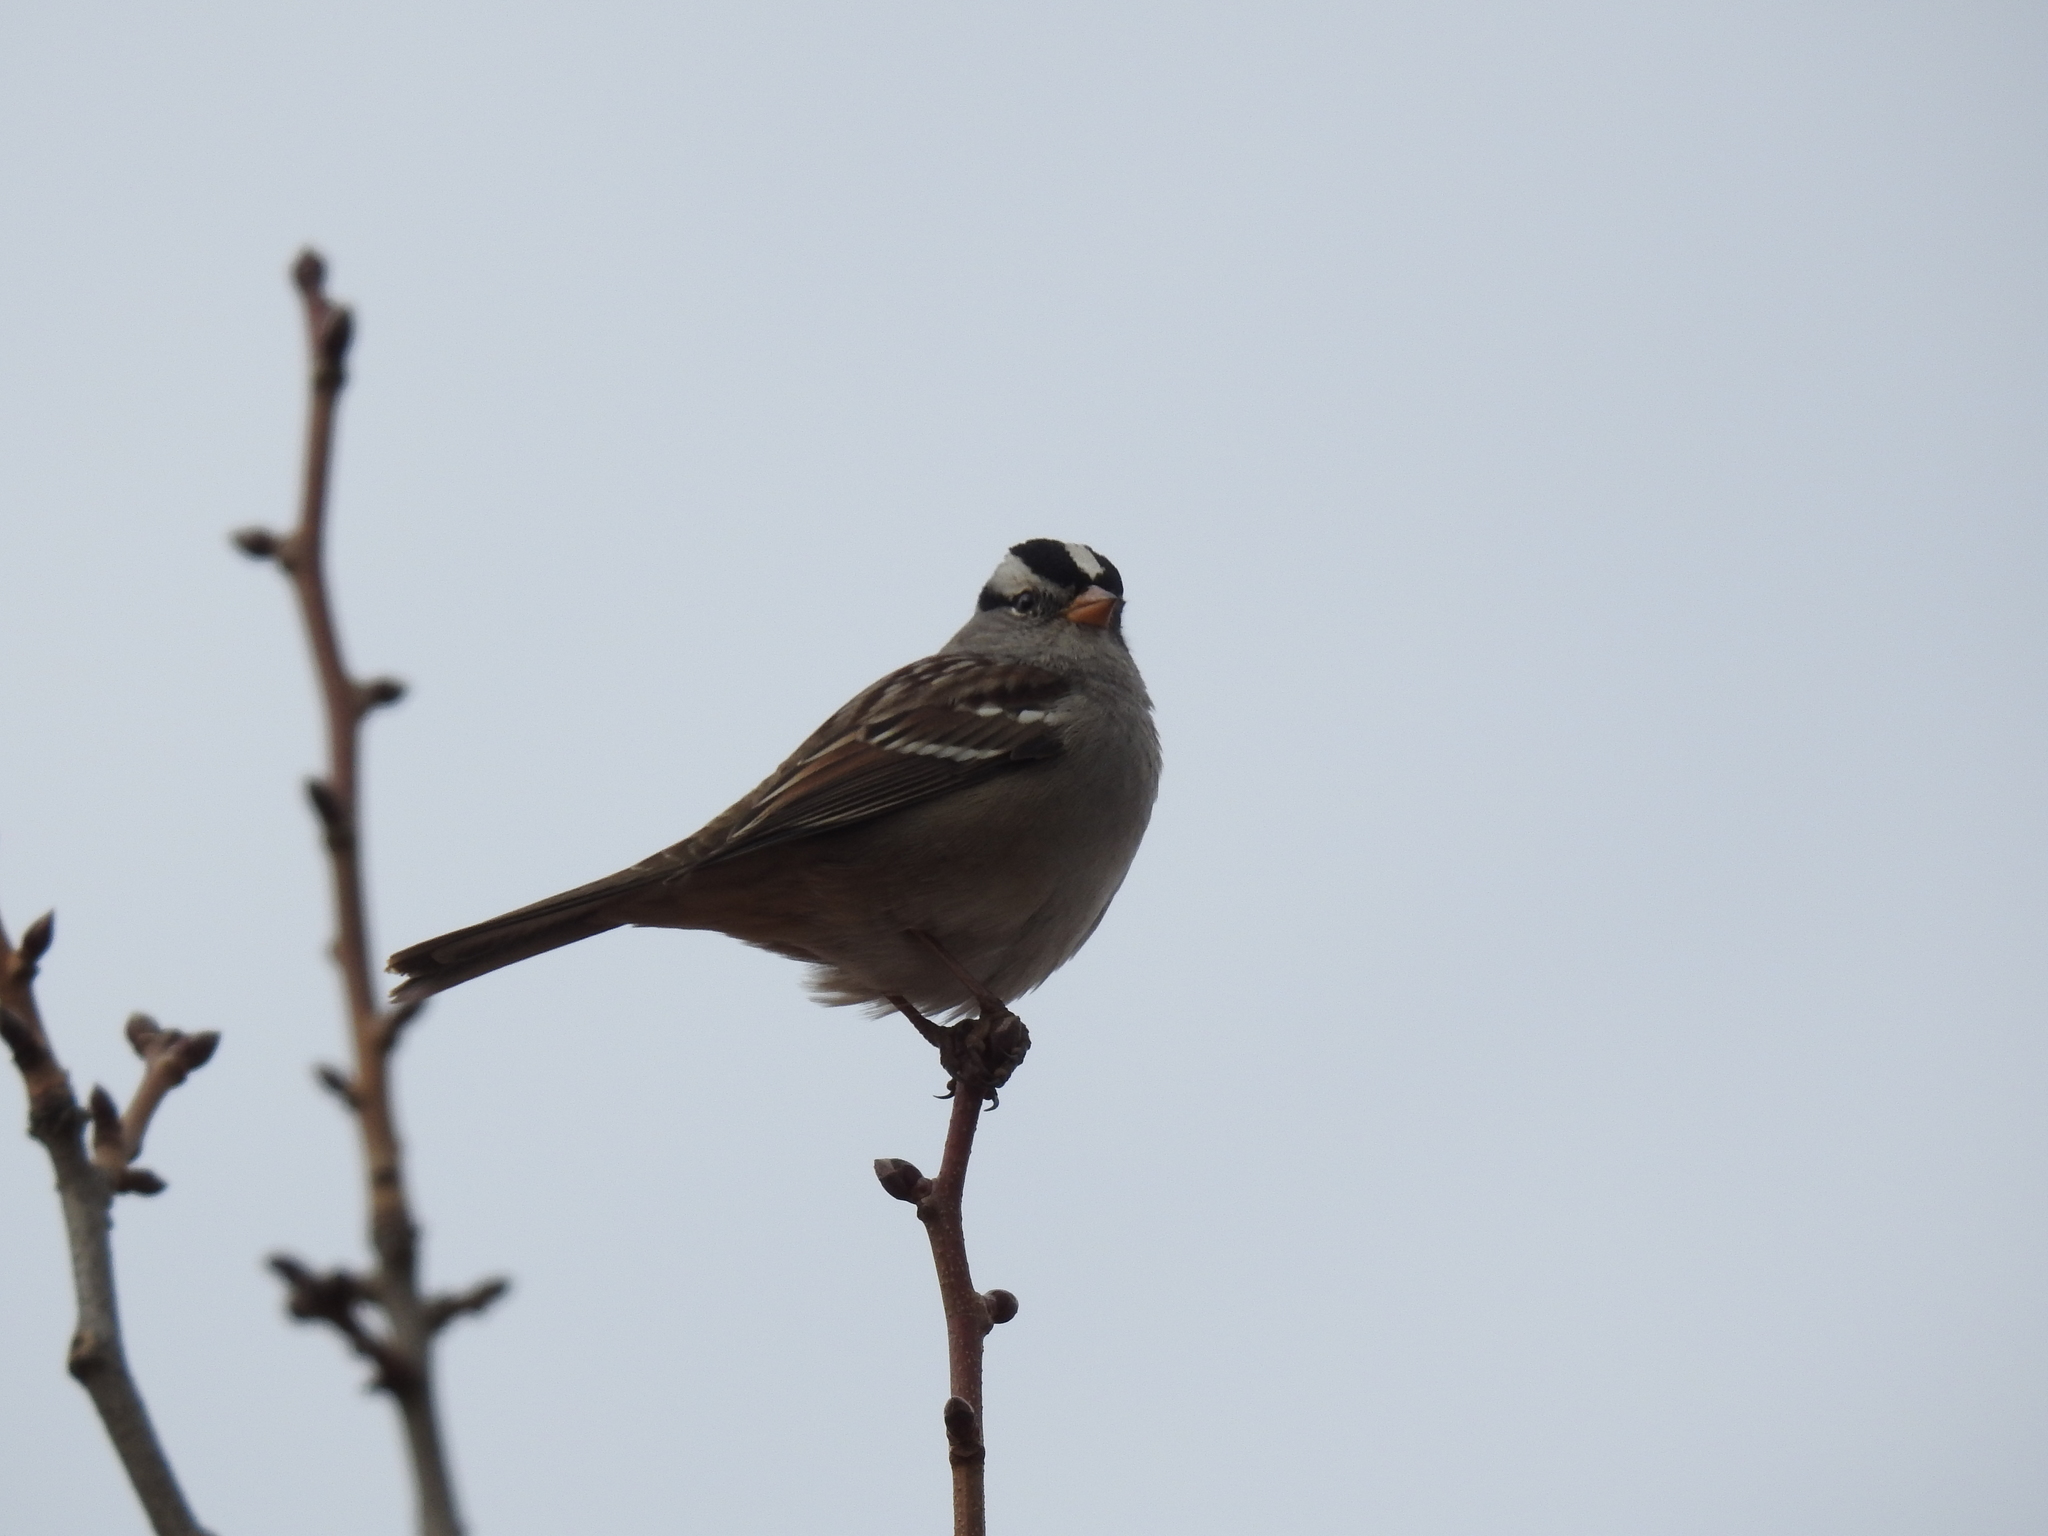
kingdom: Animalia
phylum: Chordata
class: Aves
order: Passeriformes
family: Passerellidae
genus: Zonotrichia
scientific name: Zonotrichia leucophrys
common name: White-crowned sparrow
